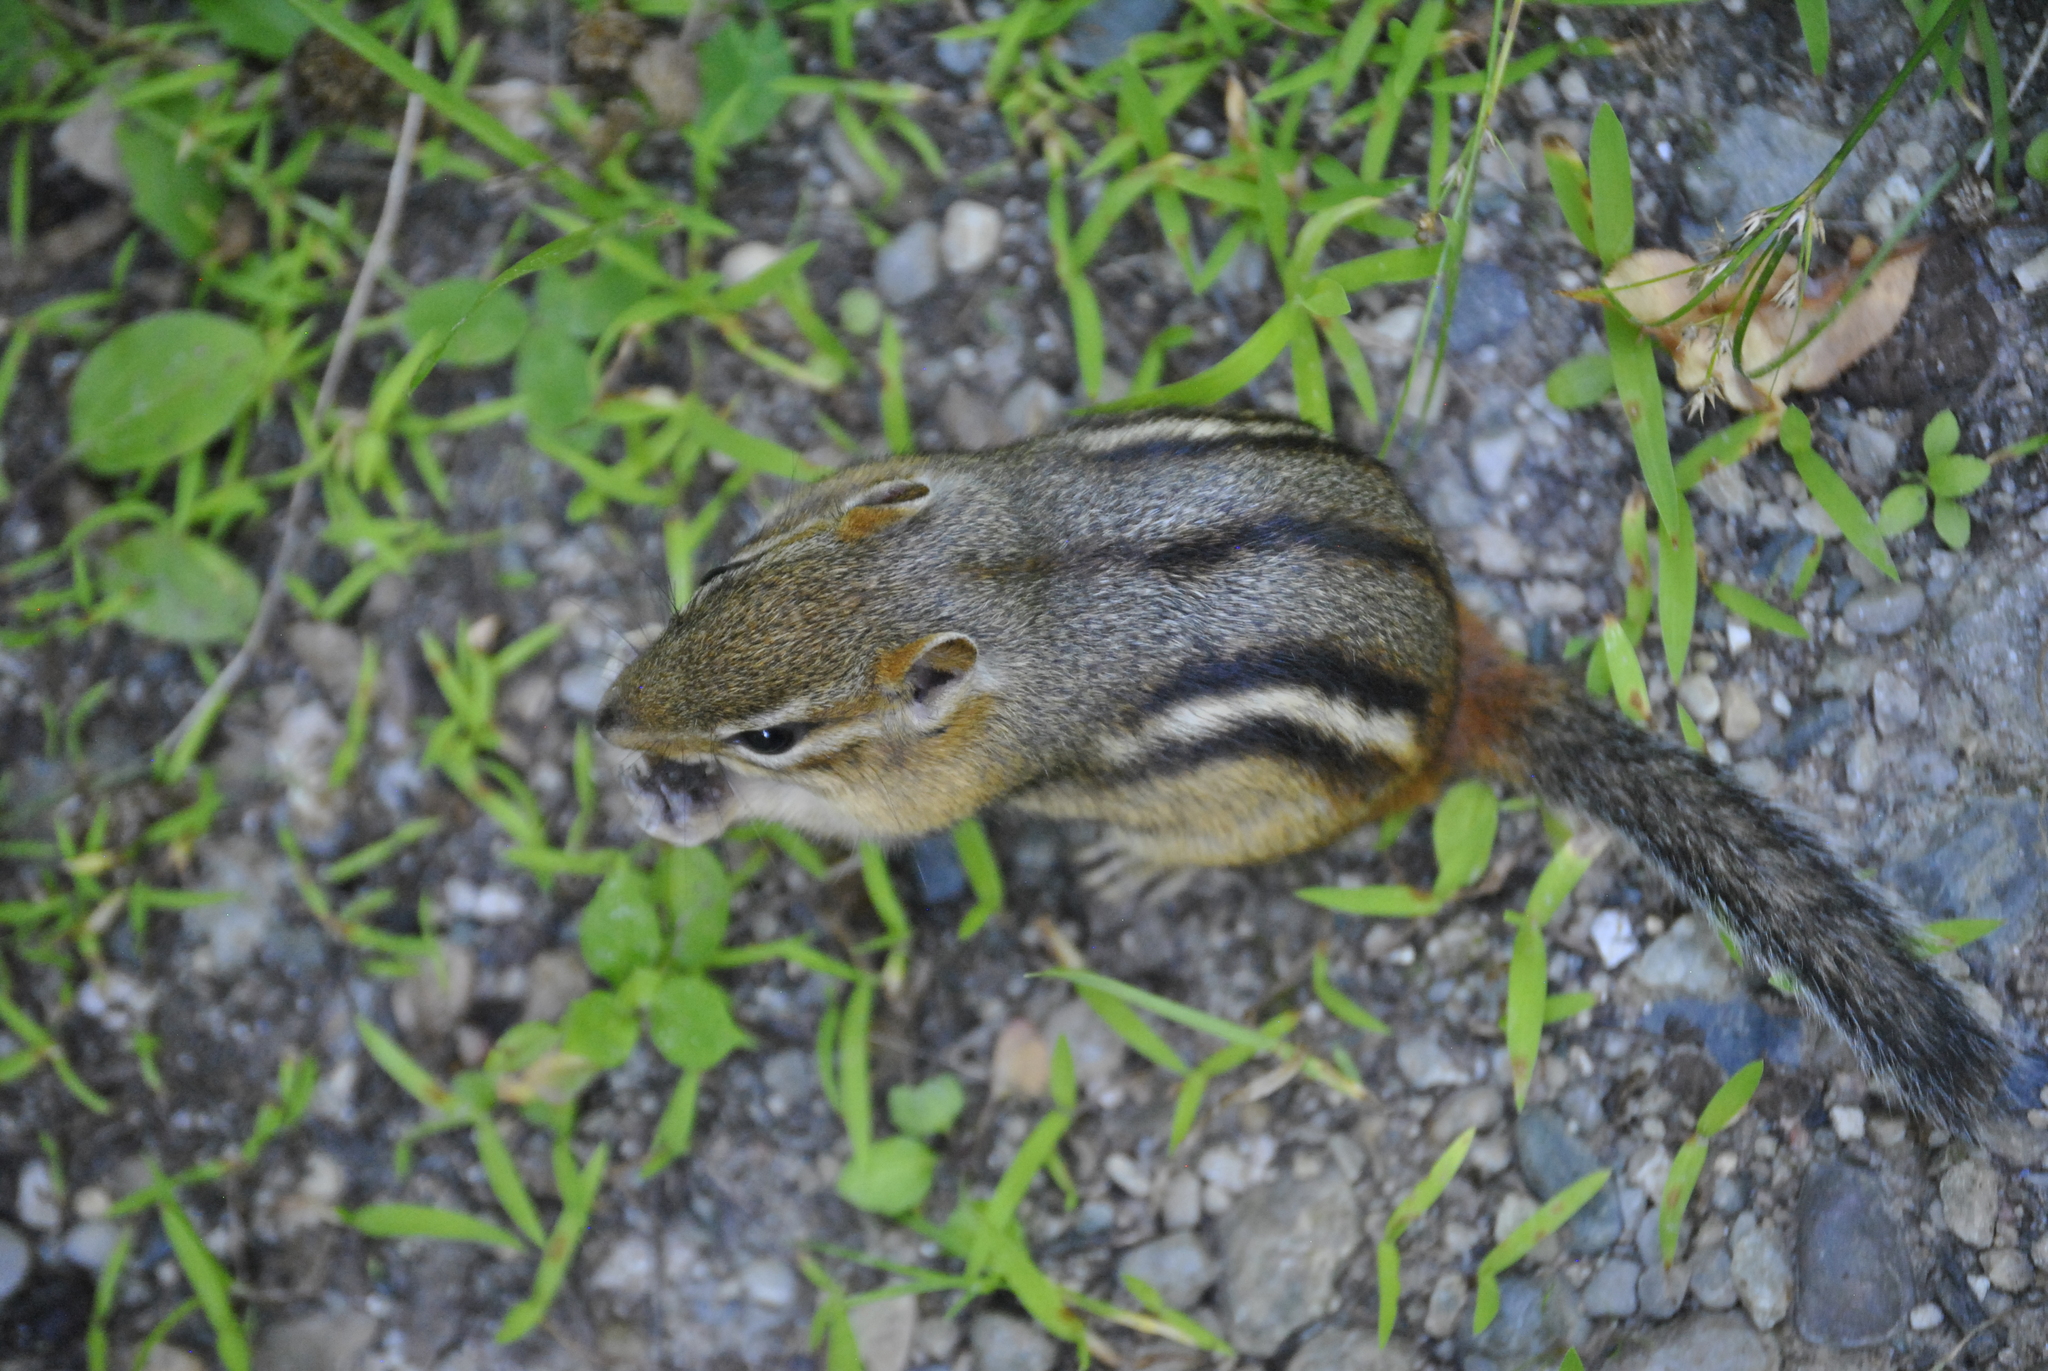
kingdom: Animalia
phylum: Chordata
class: Mammalia
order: Rodentia
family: Sciuridae
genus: Tamias
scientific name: Tamias striatus
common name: Eastern chipmunk
